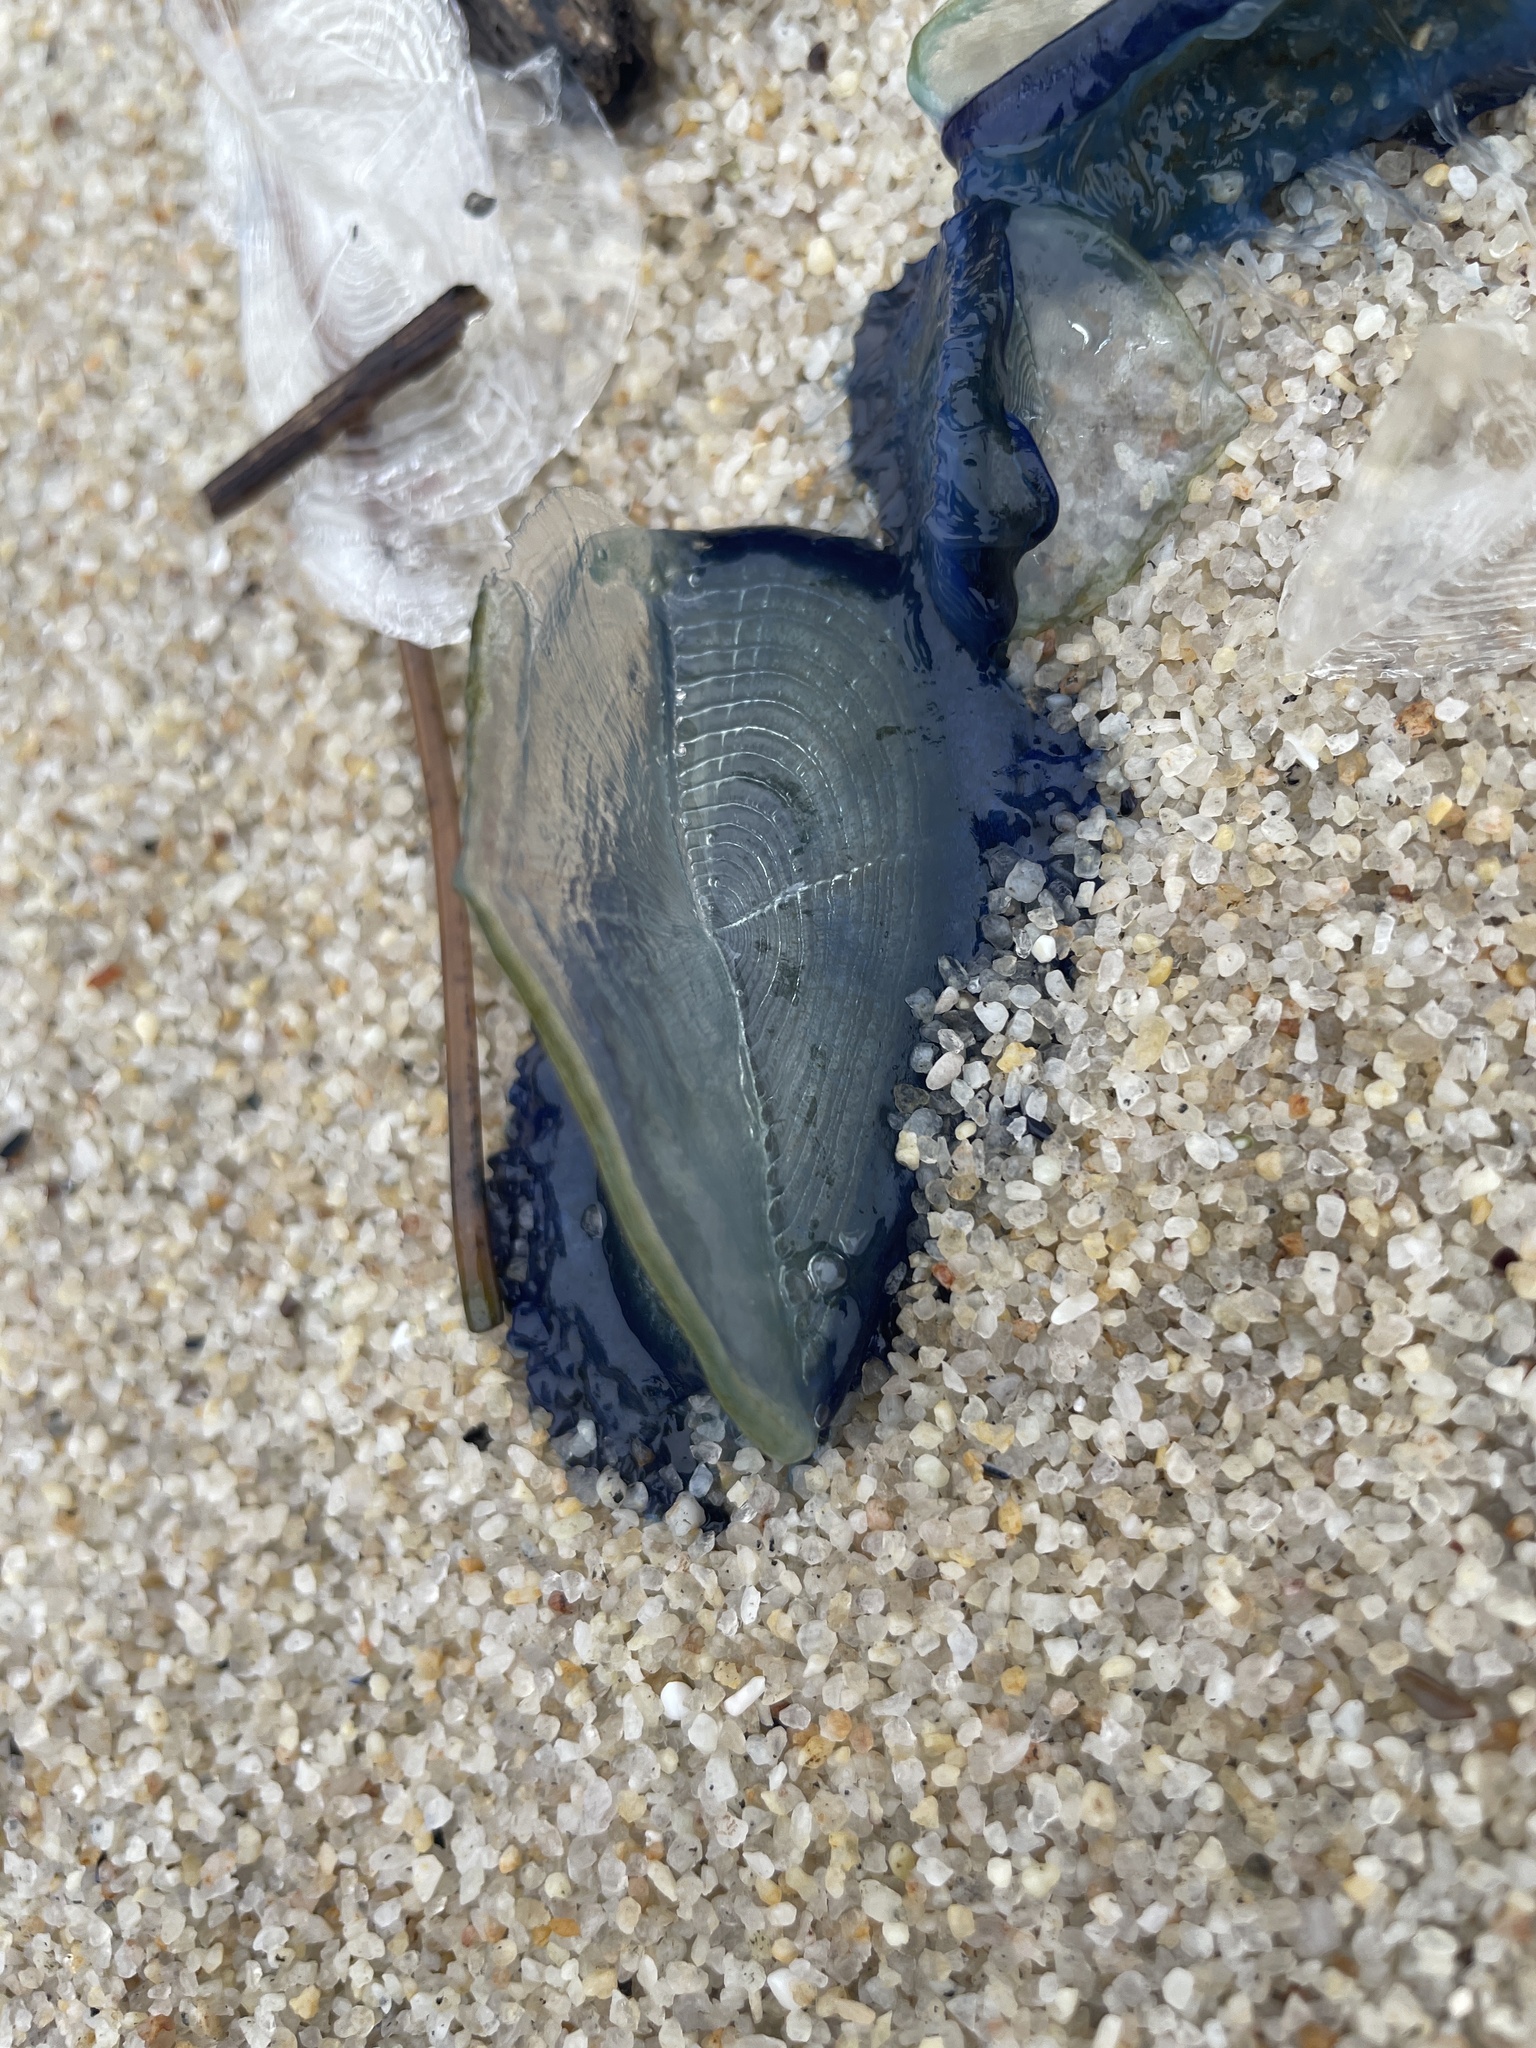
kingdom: Animalia
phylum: Cnidaria
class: Hydrozoa
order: Anthoathecata
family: Porpitidae
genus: Velella
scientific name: Velella velella
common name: By-the-wind-sailor
